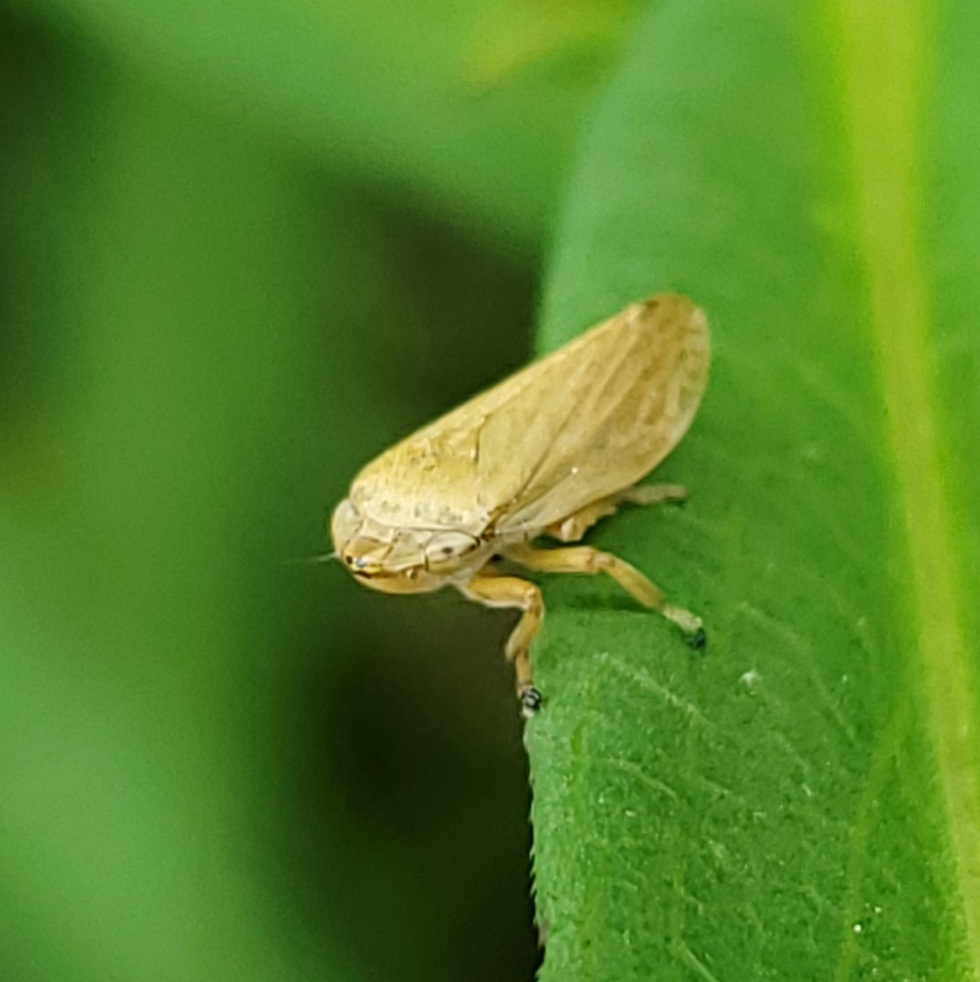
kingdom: Animalia
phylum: Arthropoda
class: Insecta
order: Hemiptera
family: Aphrophoridae
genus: Philaenus
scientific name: Philaenus spumarius
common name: Meadow spittlebug
